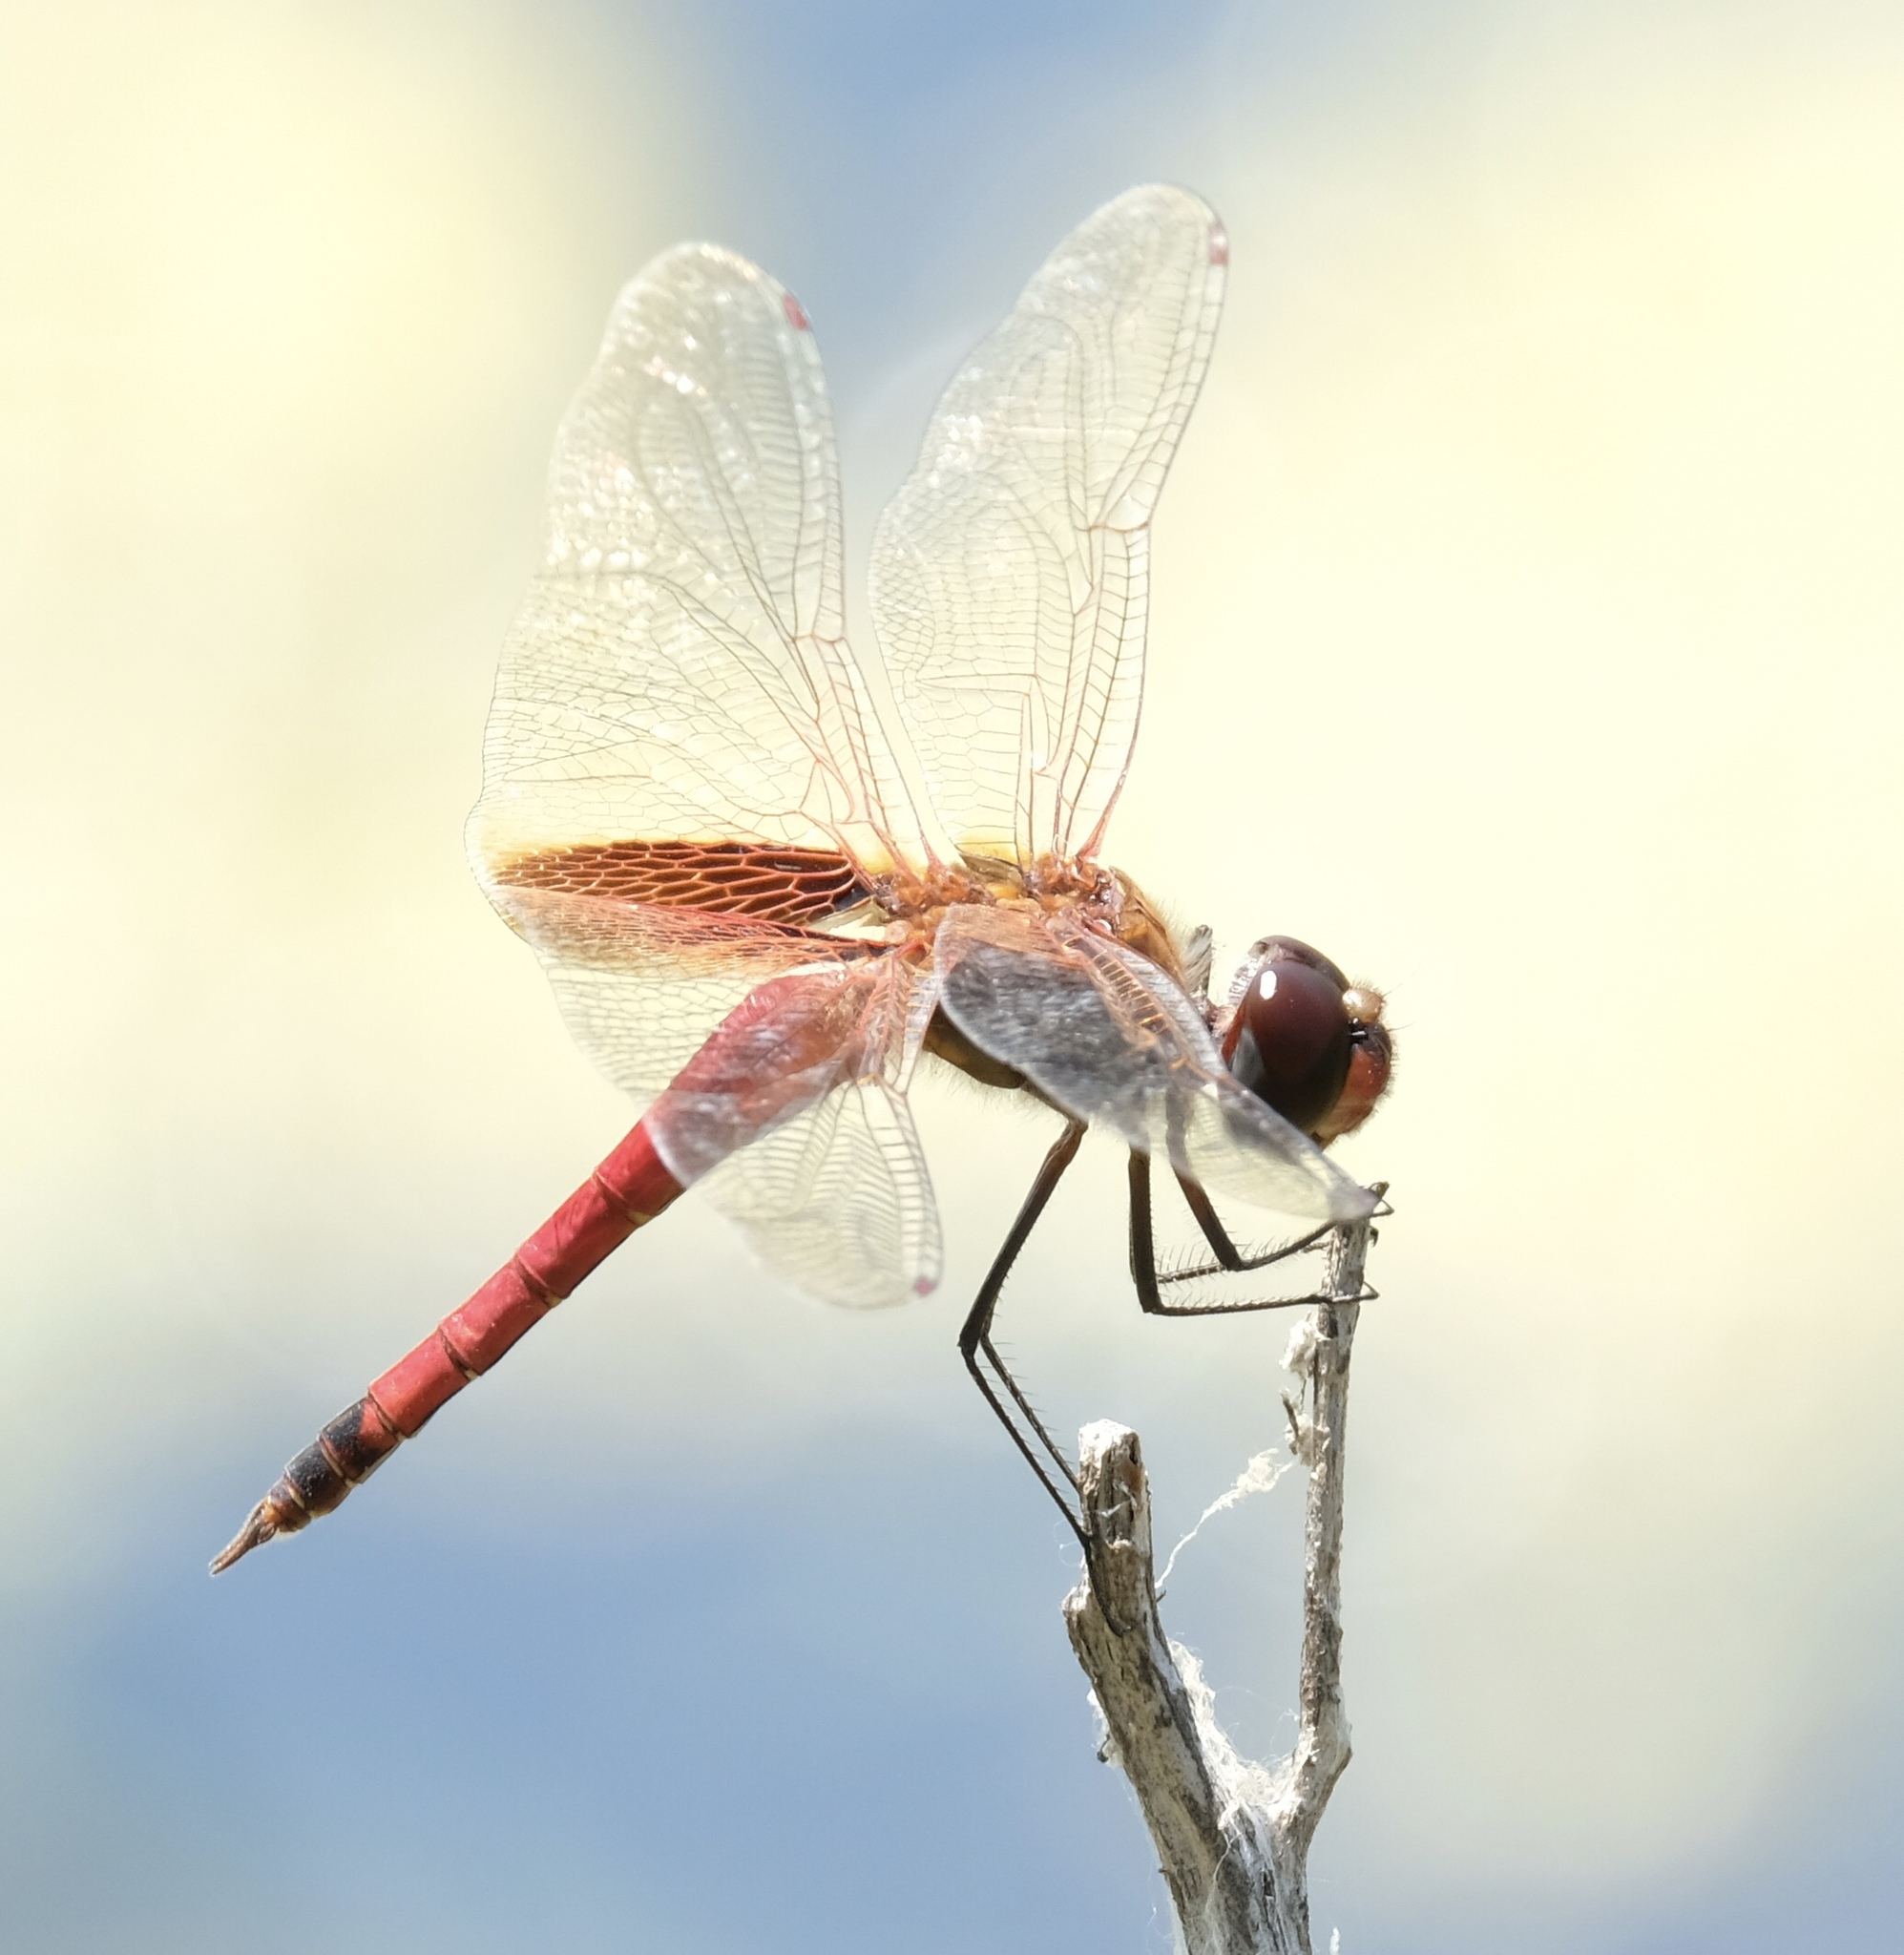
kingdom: Animalia
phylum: Arthropoda
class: Insecta
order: Odonata
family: Libellulidae
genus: Tramea
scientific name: Tramea darwini
